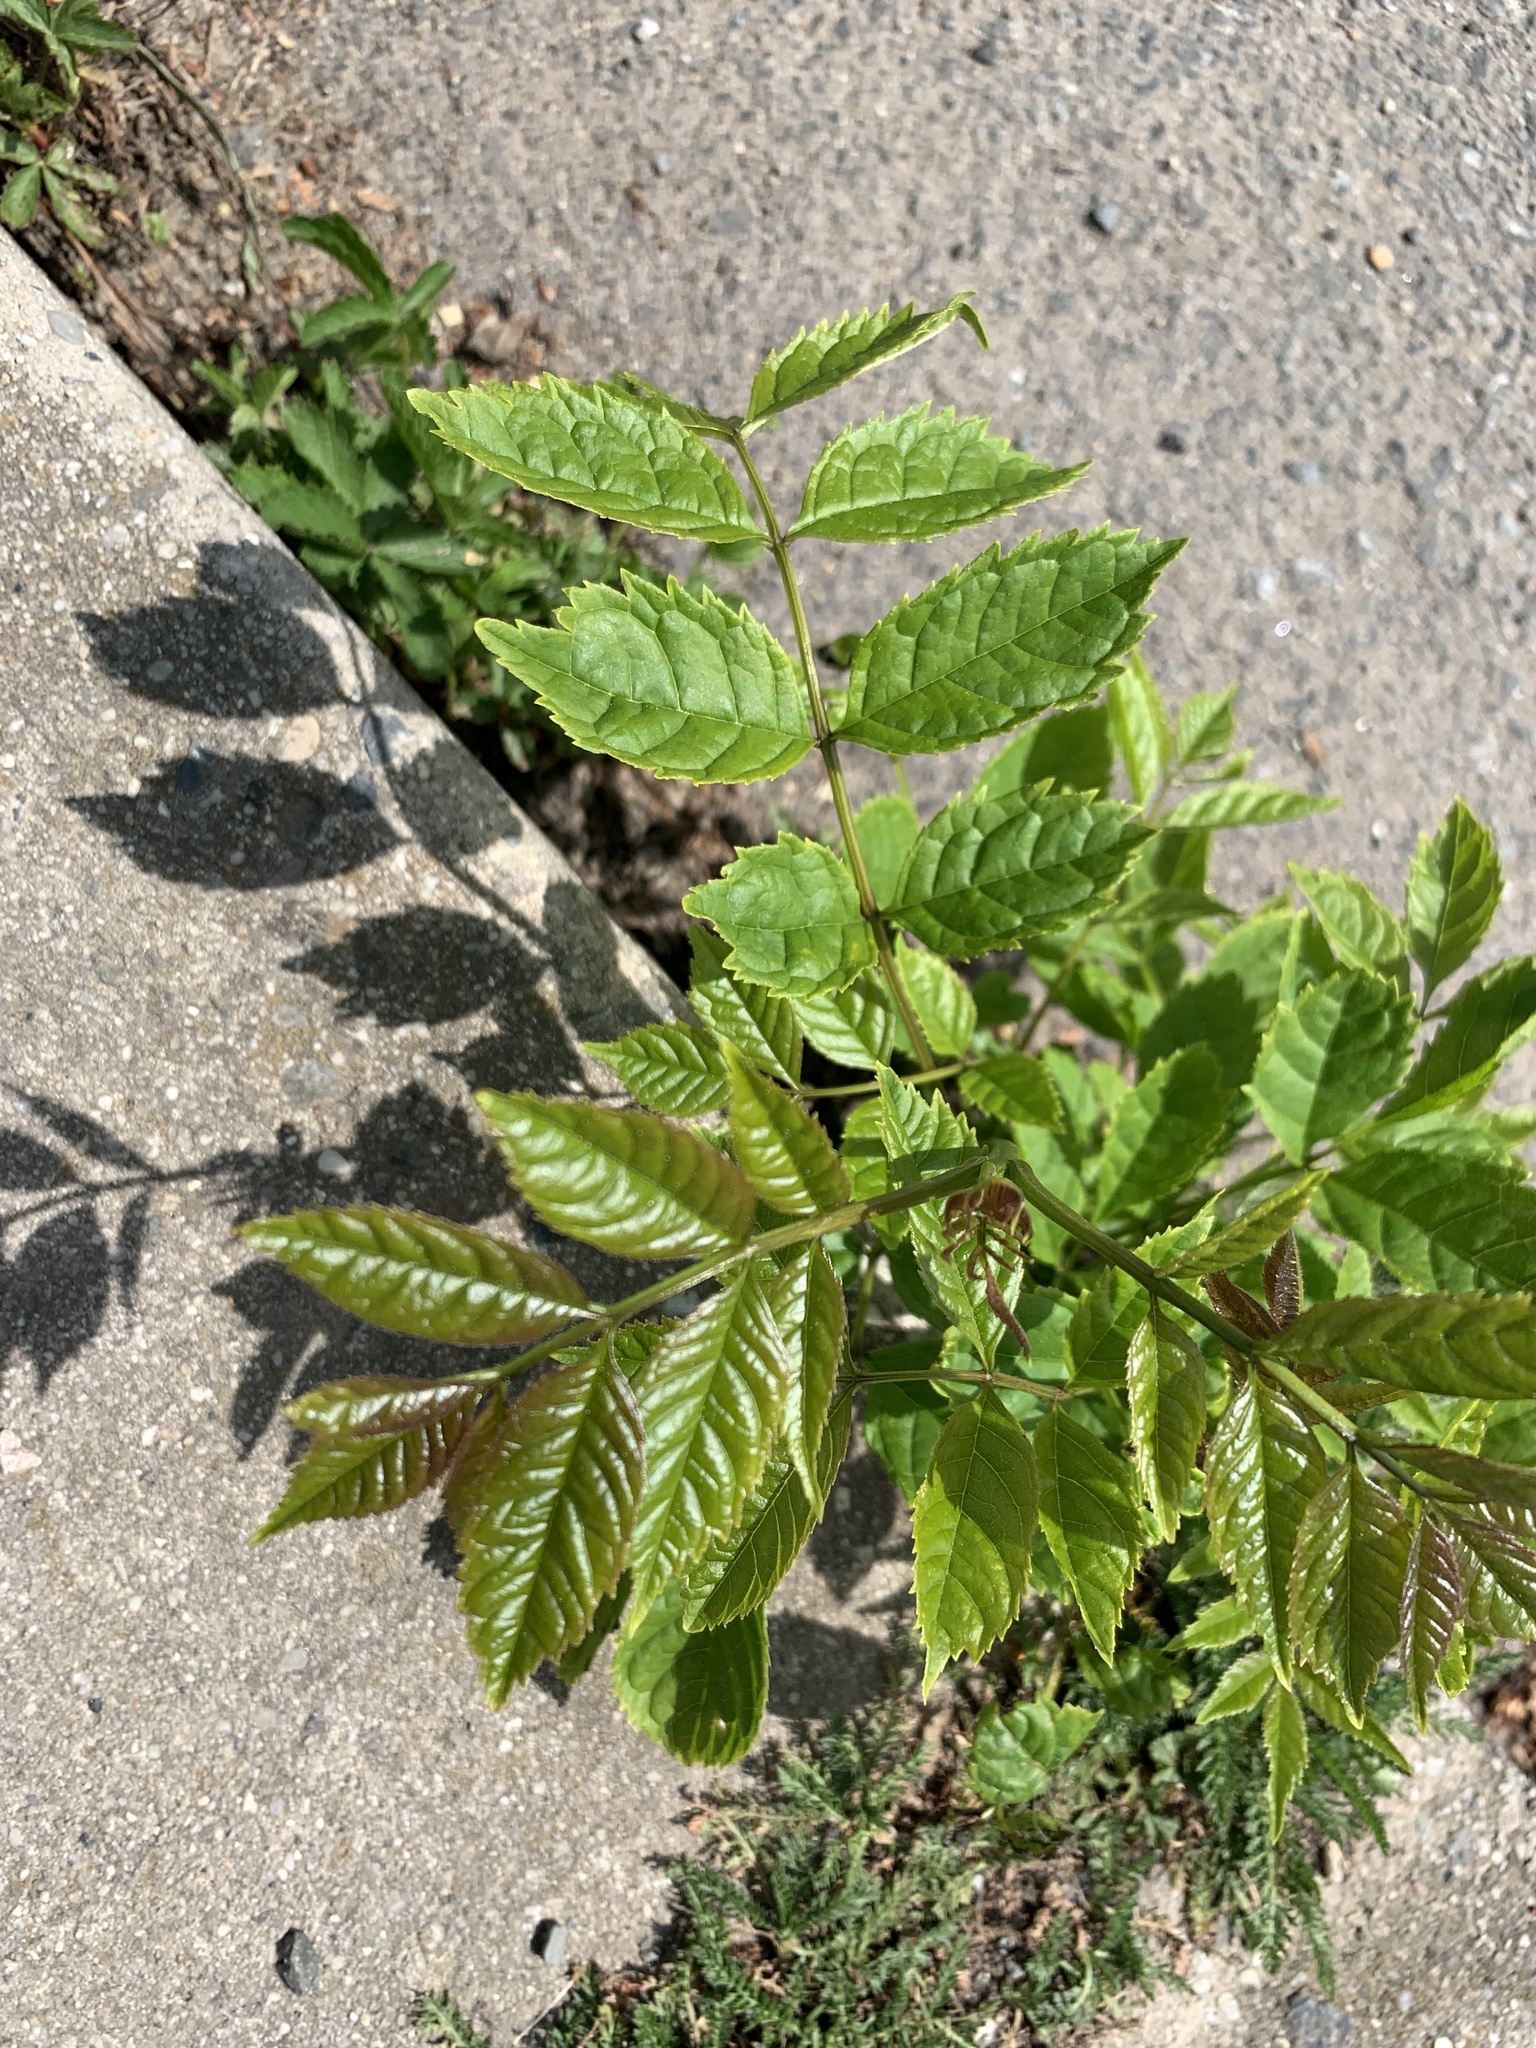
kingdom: Plantae
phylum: Tracheophyta
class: Magnoliopsida
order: Lamiales
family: Oleaceae
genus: Fraxinus
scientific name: Fraxinus excelsior
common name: European ash
